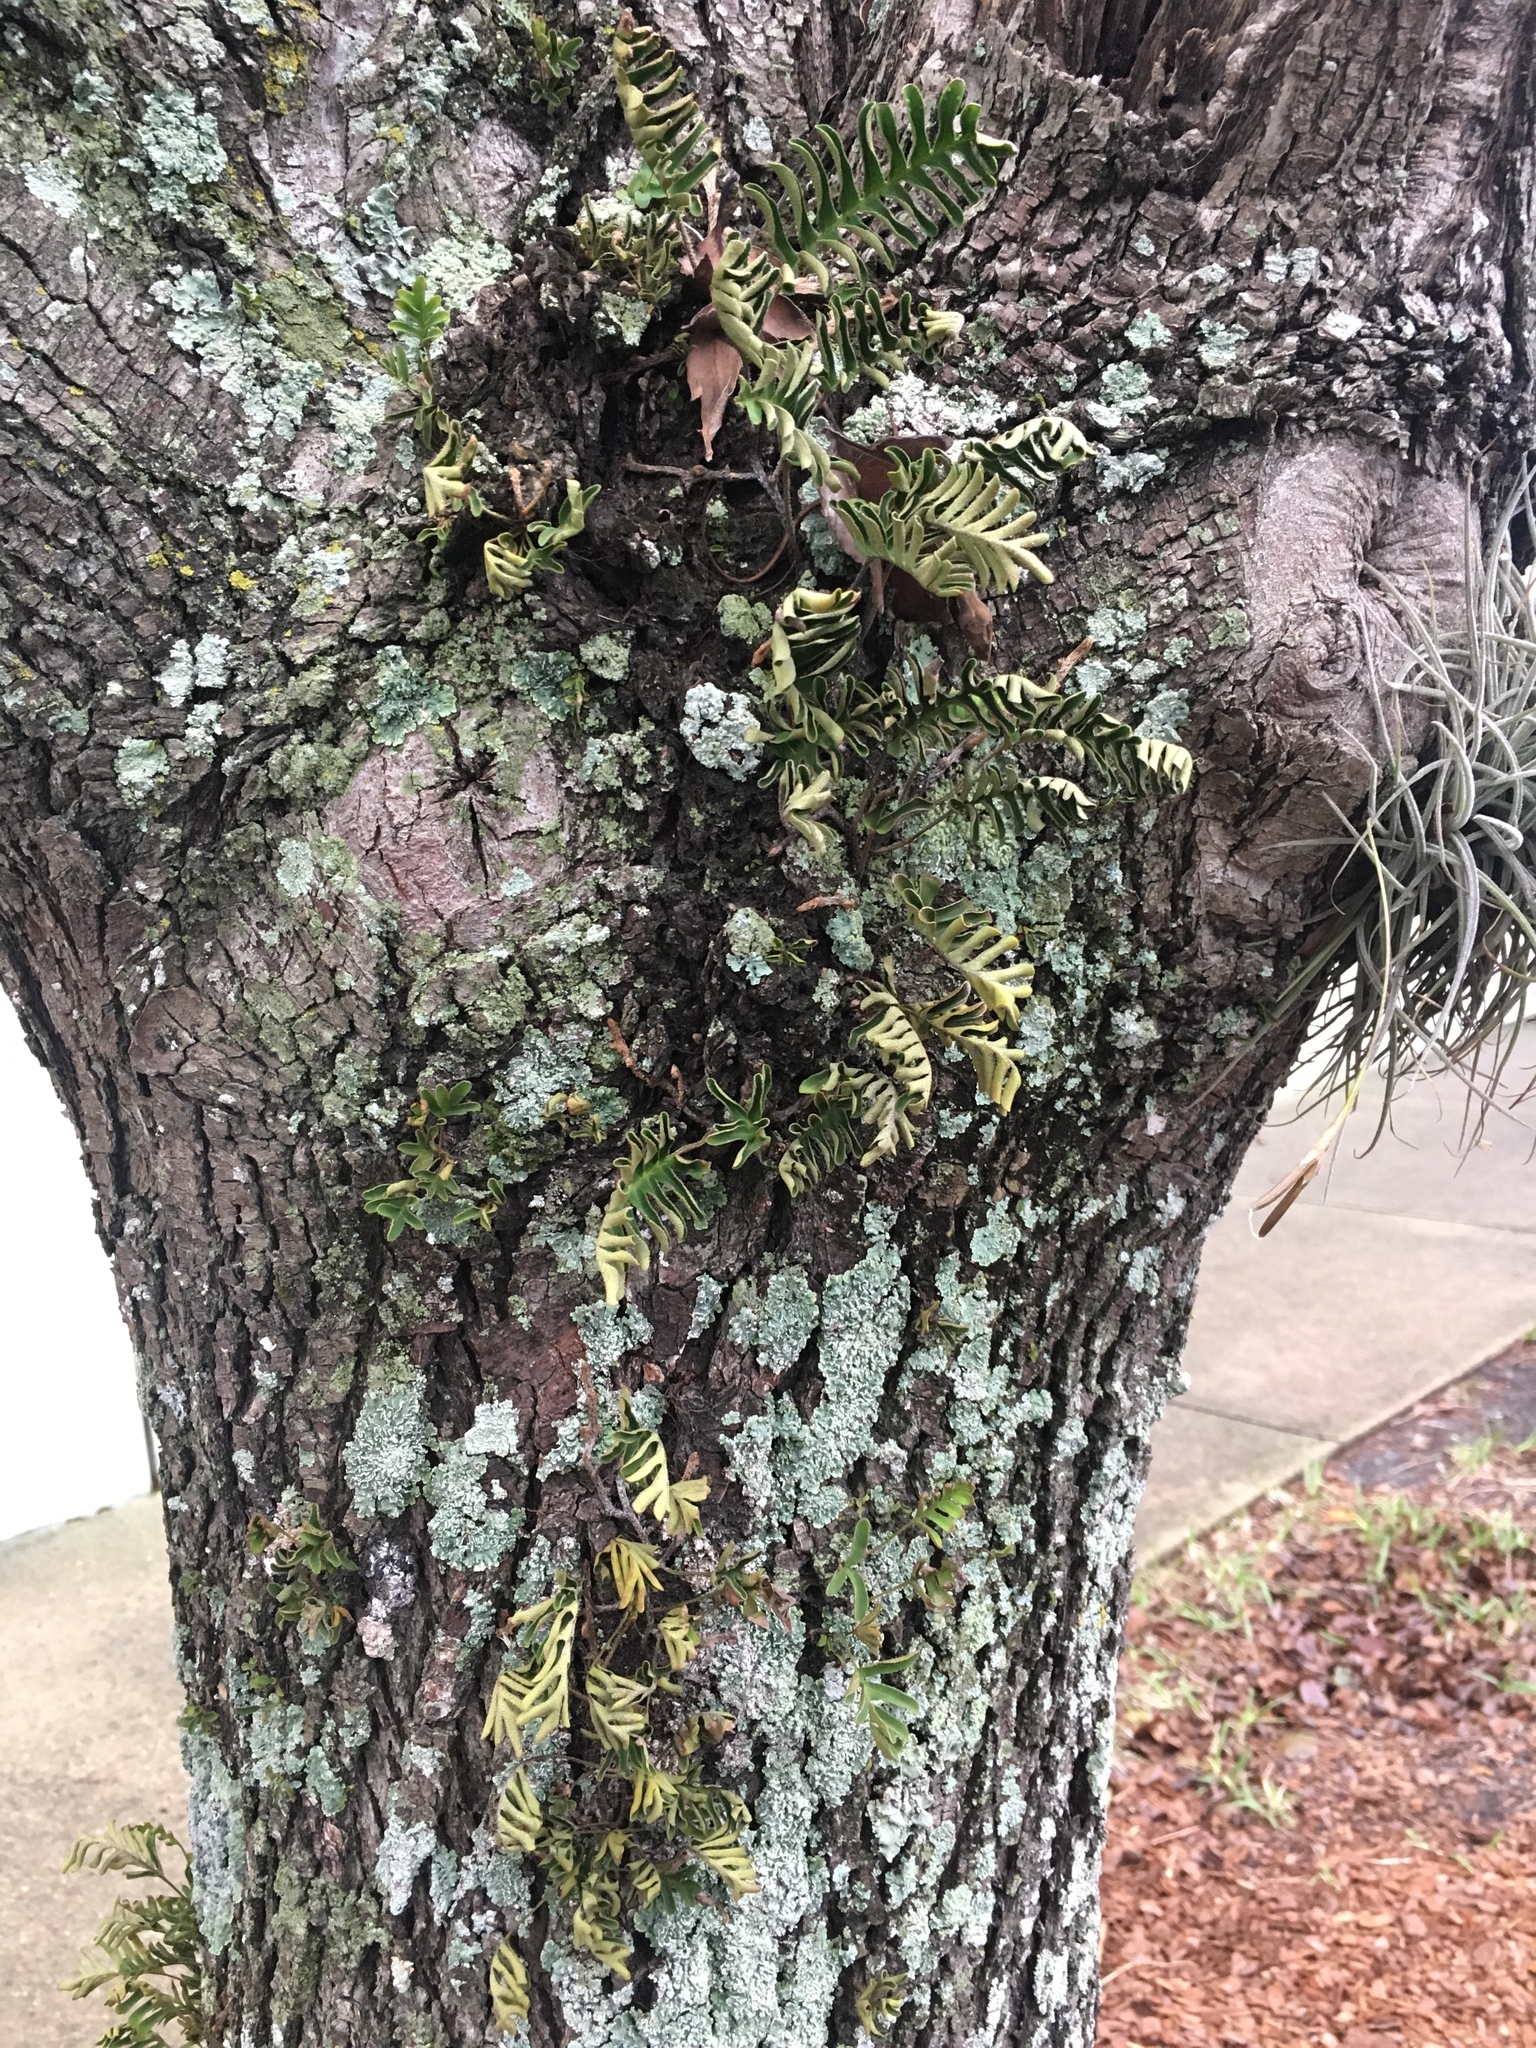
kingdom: Plantae
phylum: Tracheophyta
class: Polypodiopsida
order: Polypodiales
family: Polypodiaceae
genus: Pleopeltis
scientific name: Pleopeltis michauxiana
